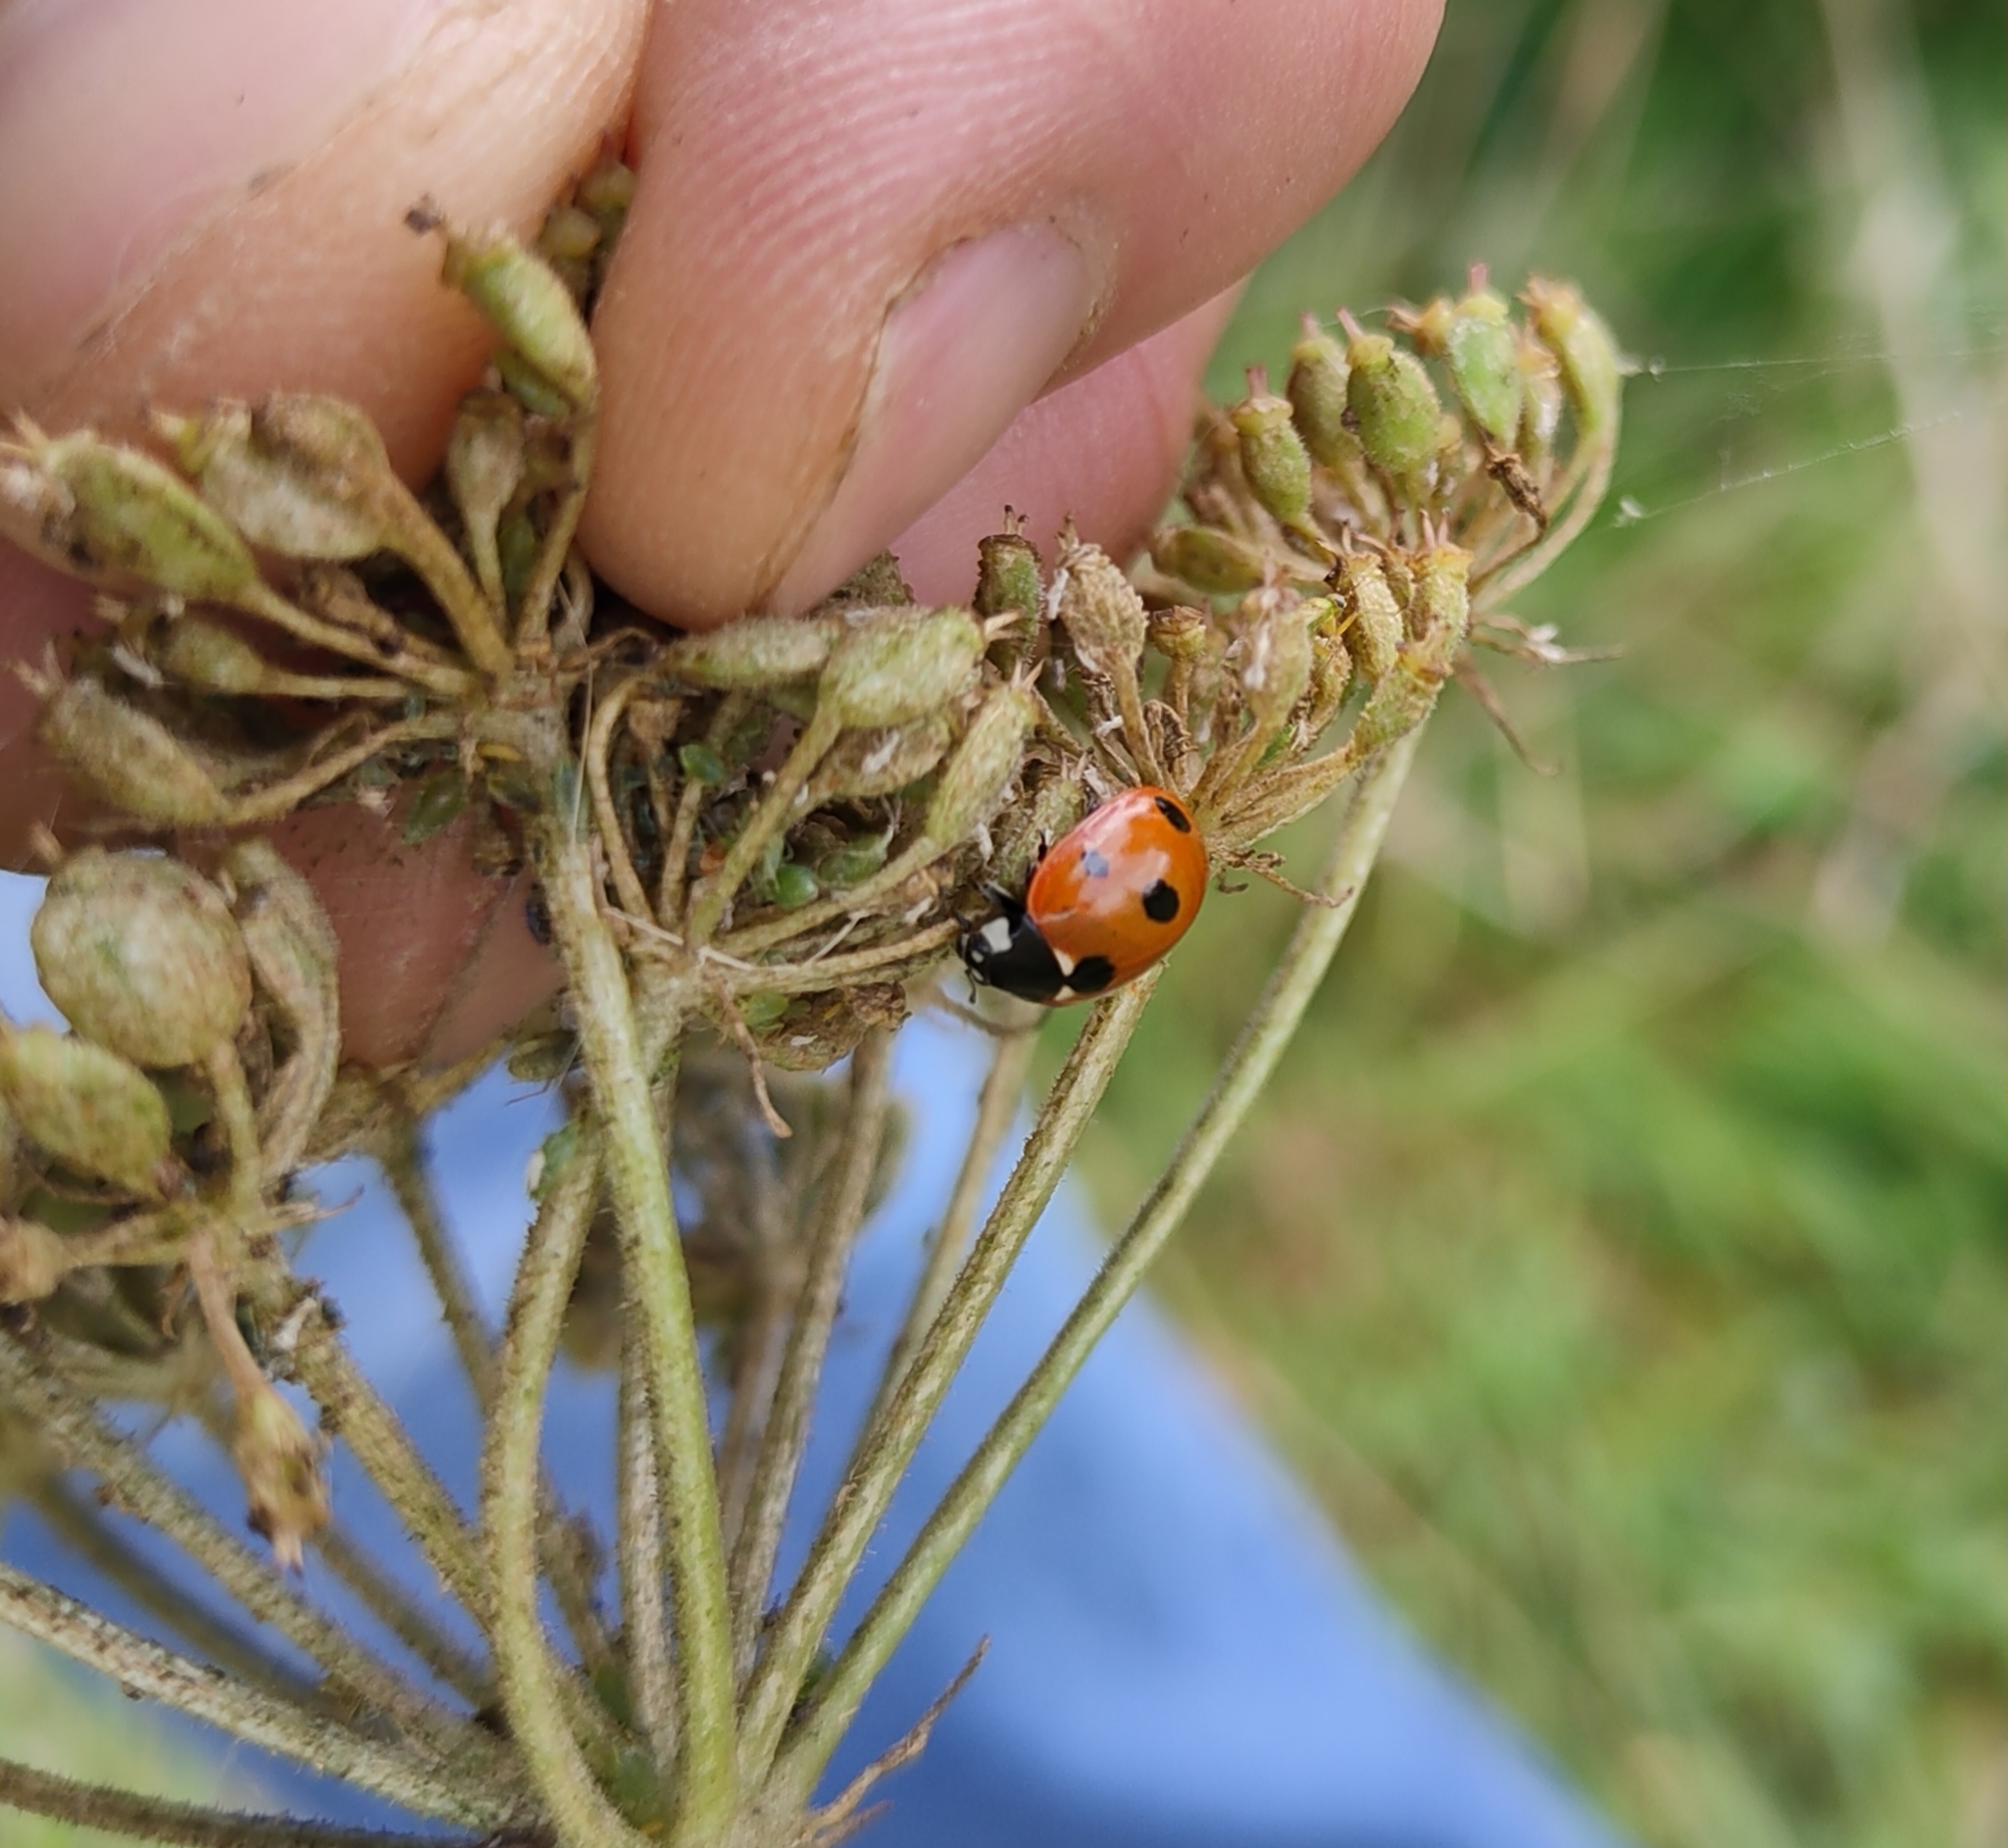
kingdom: Animalia
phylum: Arthropoda
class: Insecta
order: Coleoptera
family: Coccinellidae
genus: Coccinella
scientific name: Coccinella septempunctata
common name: Sevenspotted lady beetle
